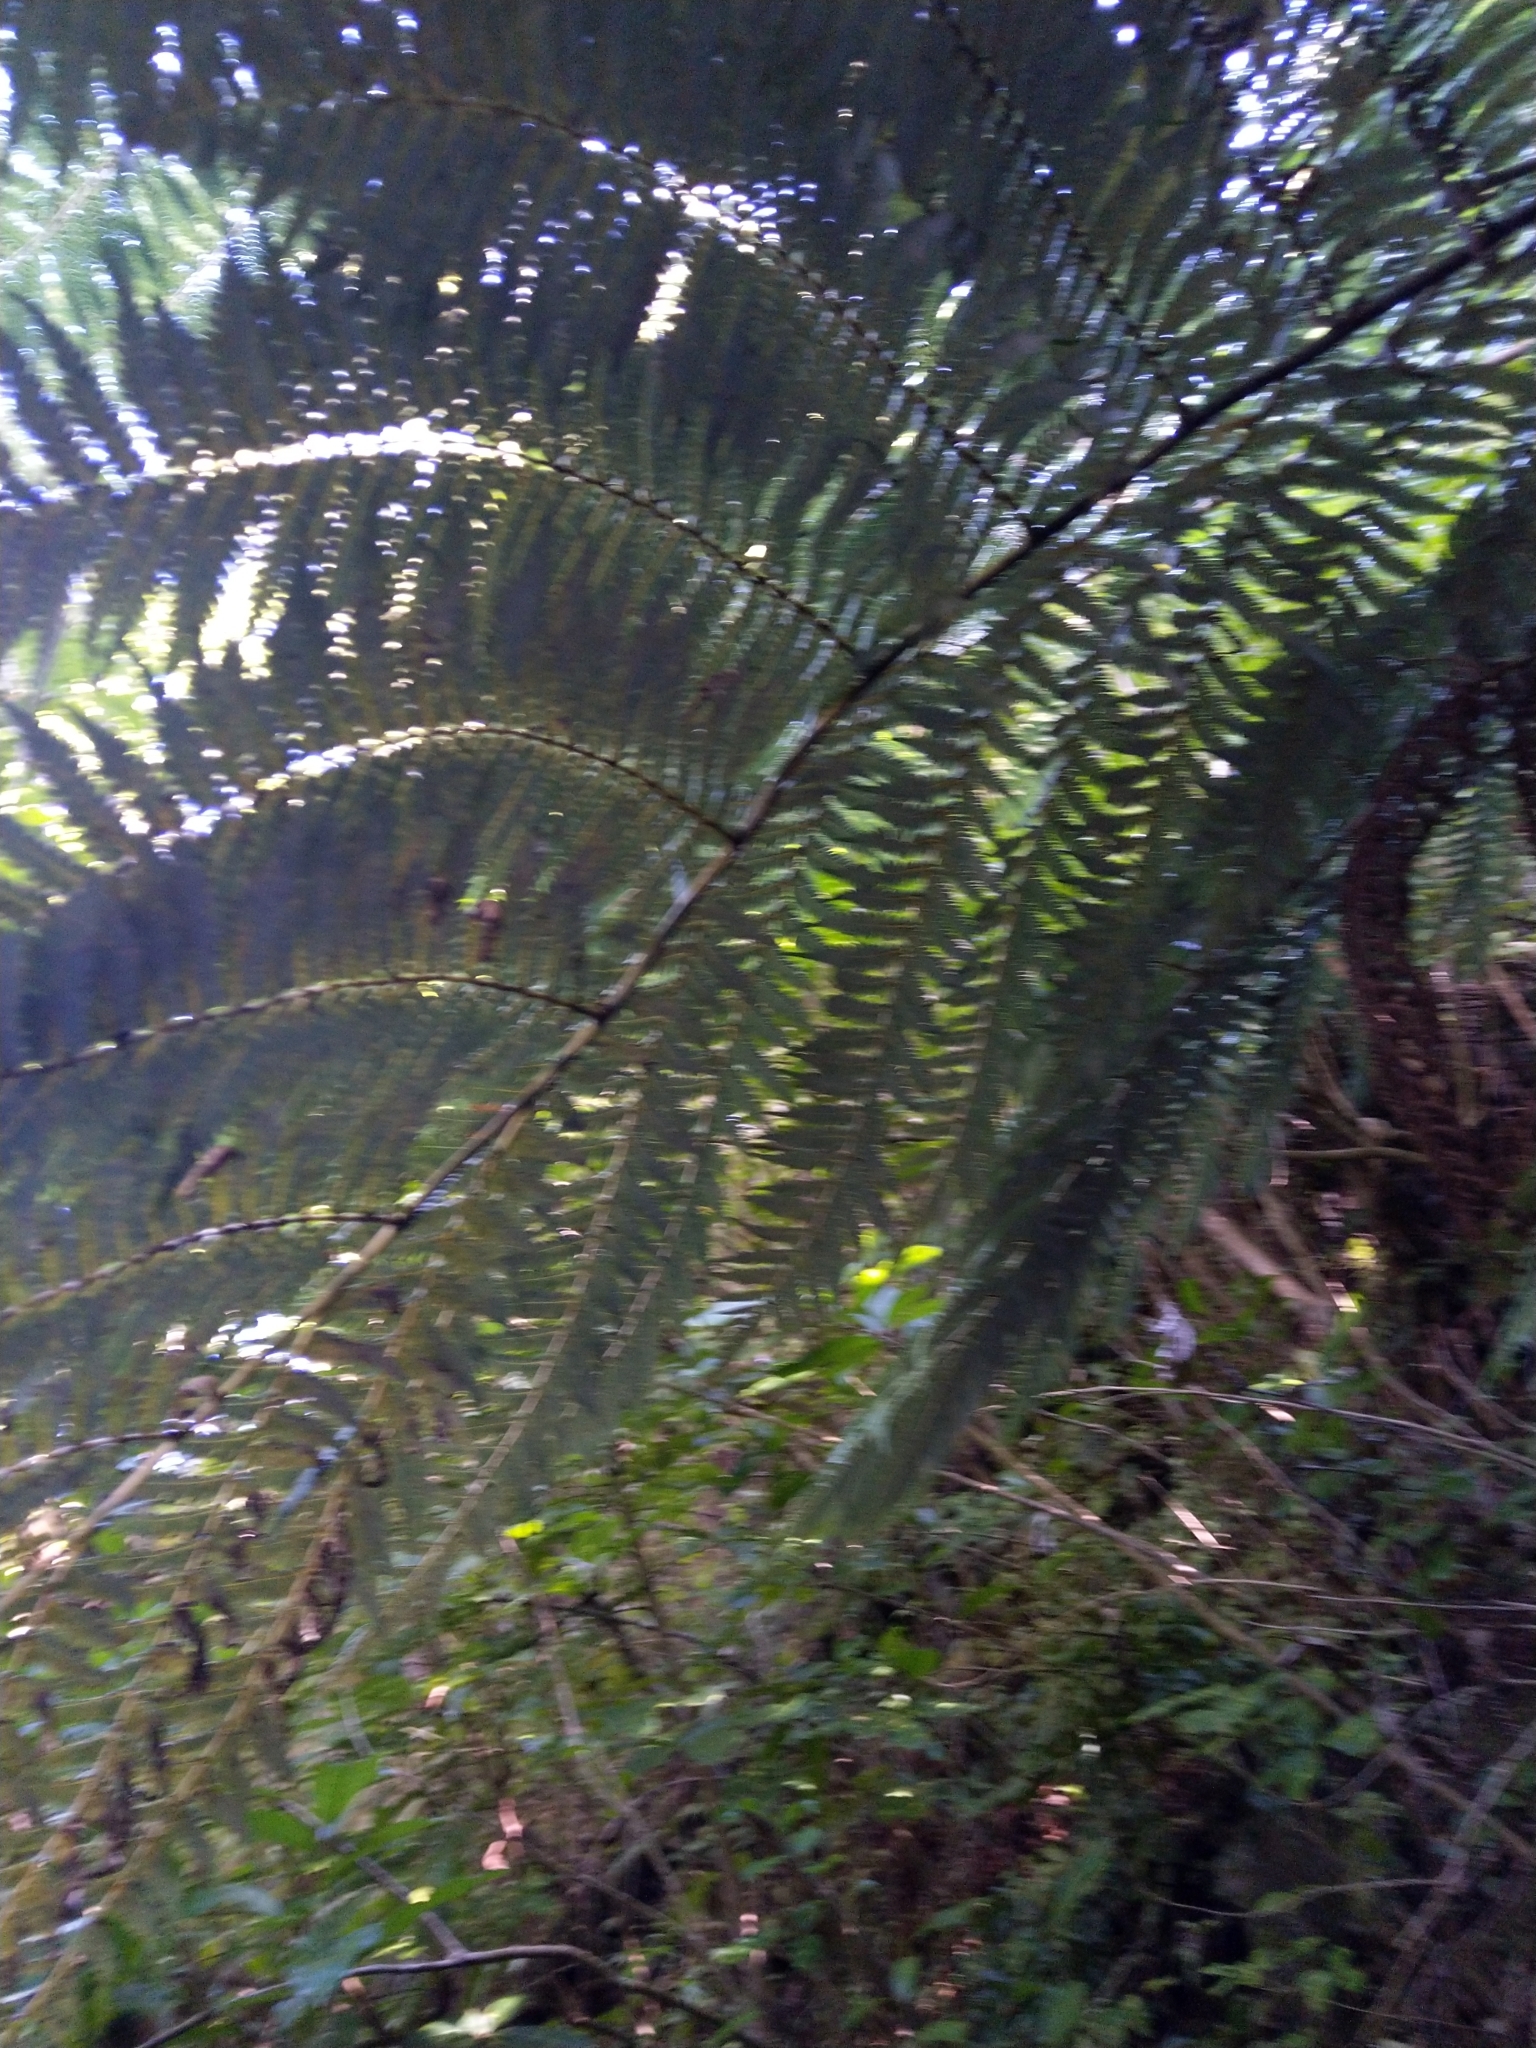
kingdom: Plantae
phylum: Tracheophyta
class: Polypodiopsida
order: Cyatheales
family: Cyatheaceae
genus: Alsophila
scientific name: Alsophila dealbata
